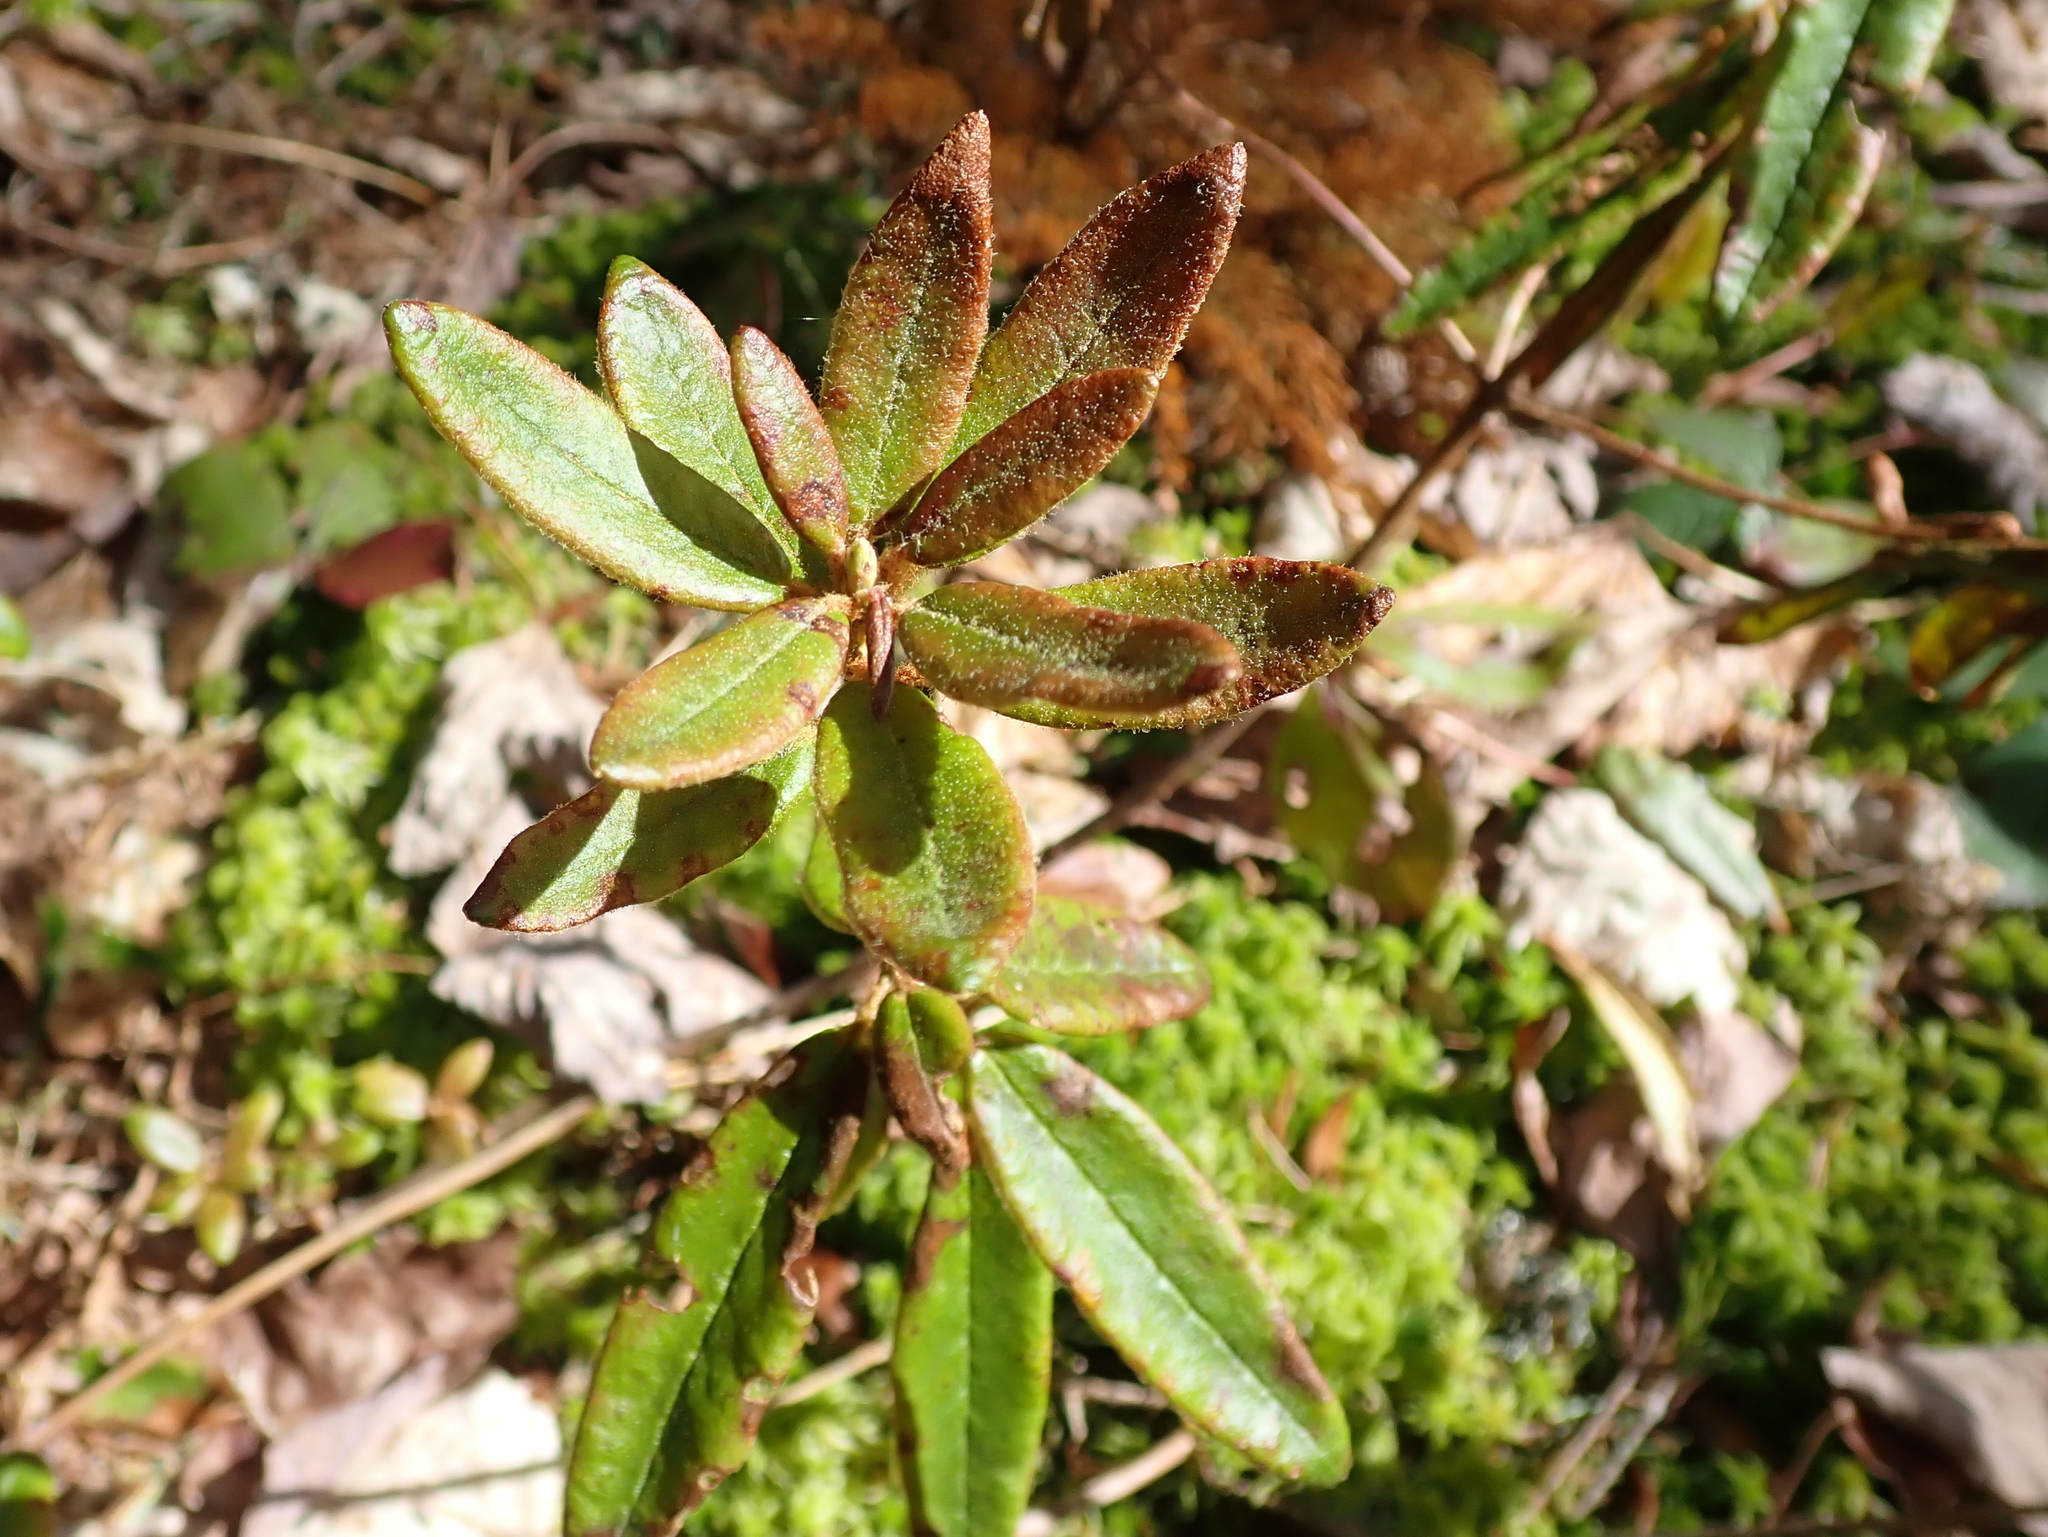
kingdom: Plantae
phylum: Tracheophyta
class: Magnoliopsida
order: Ericales
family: Ericaceae
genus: Rhododendron
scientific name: Rhododendron groenlandicum
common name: Bog labrador tea
